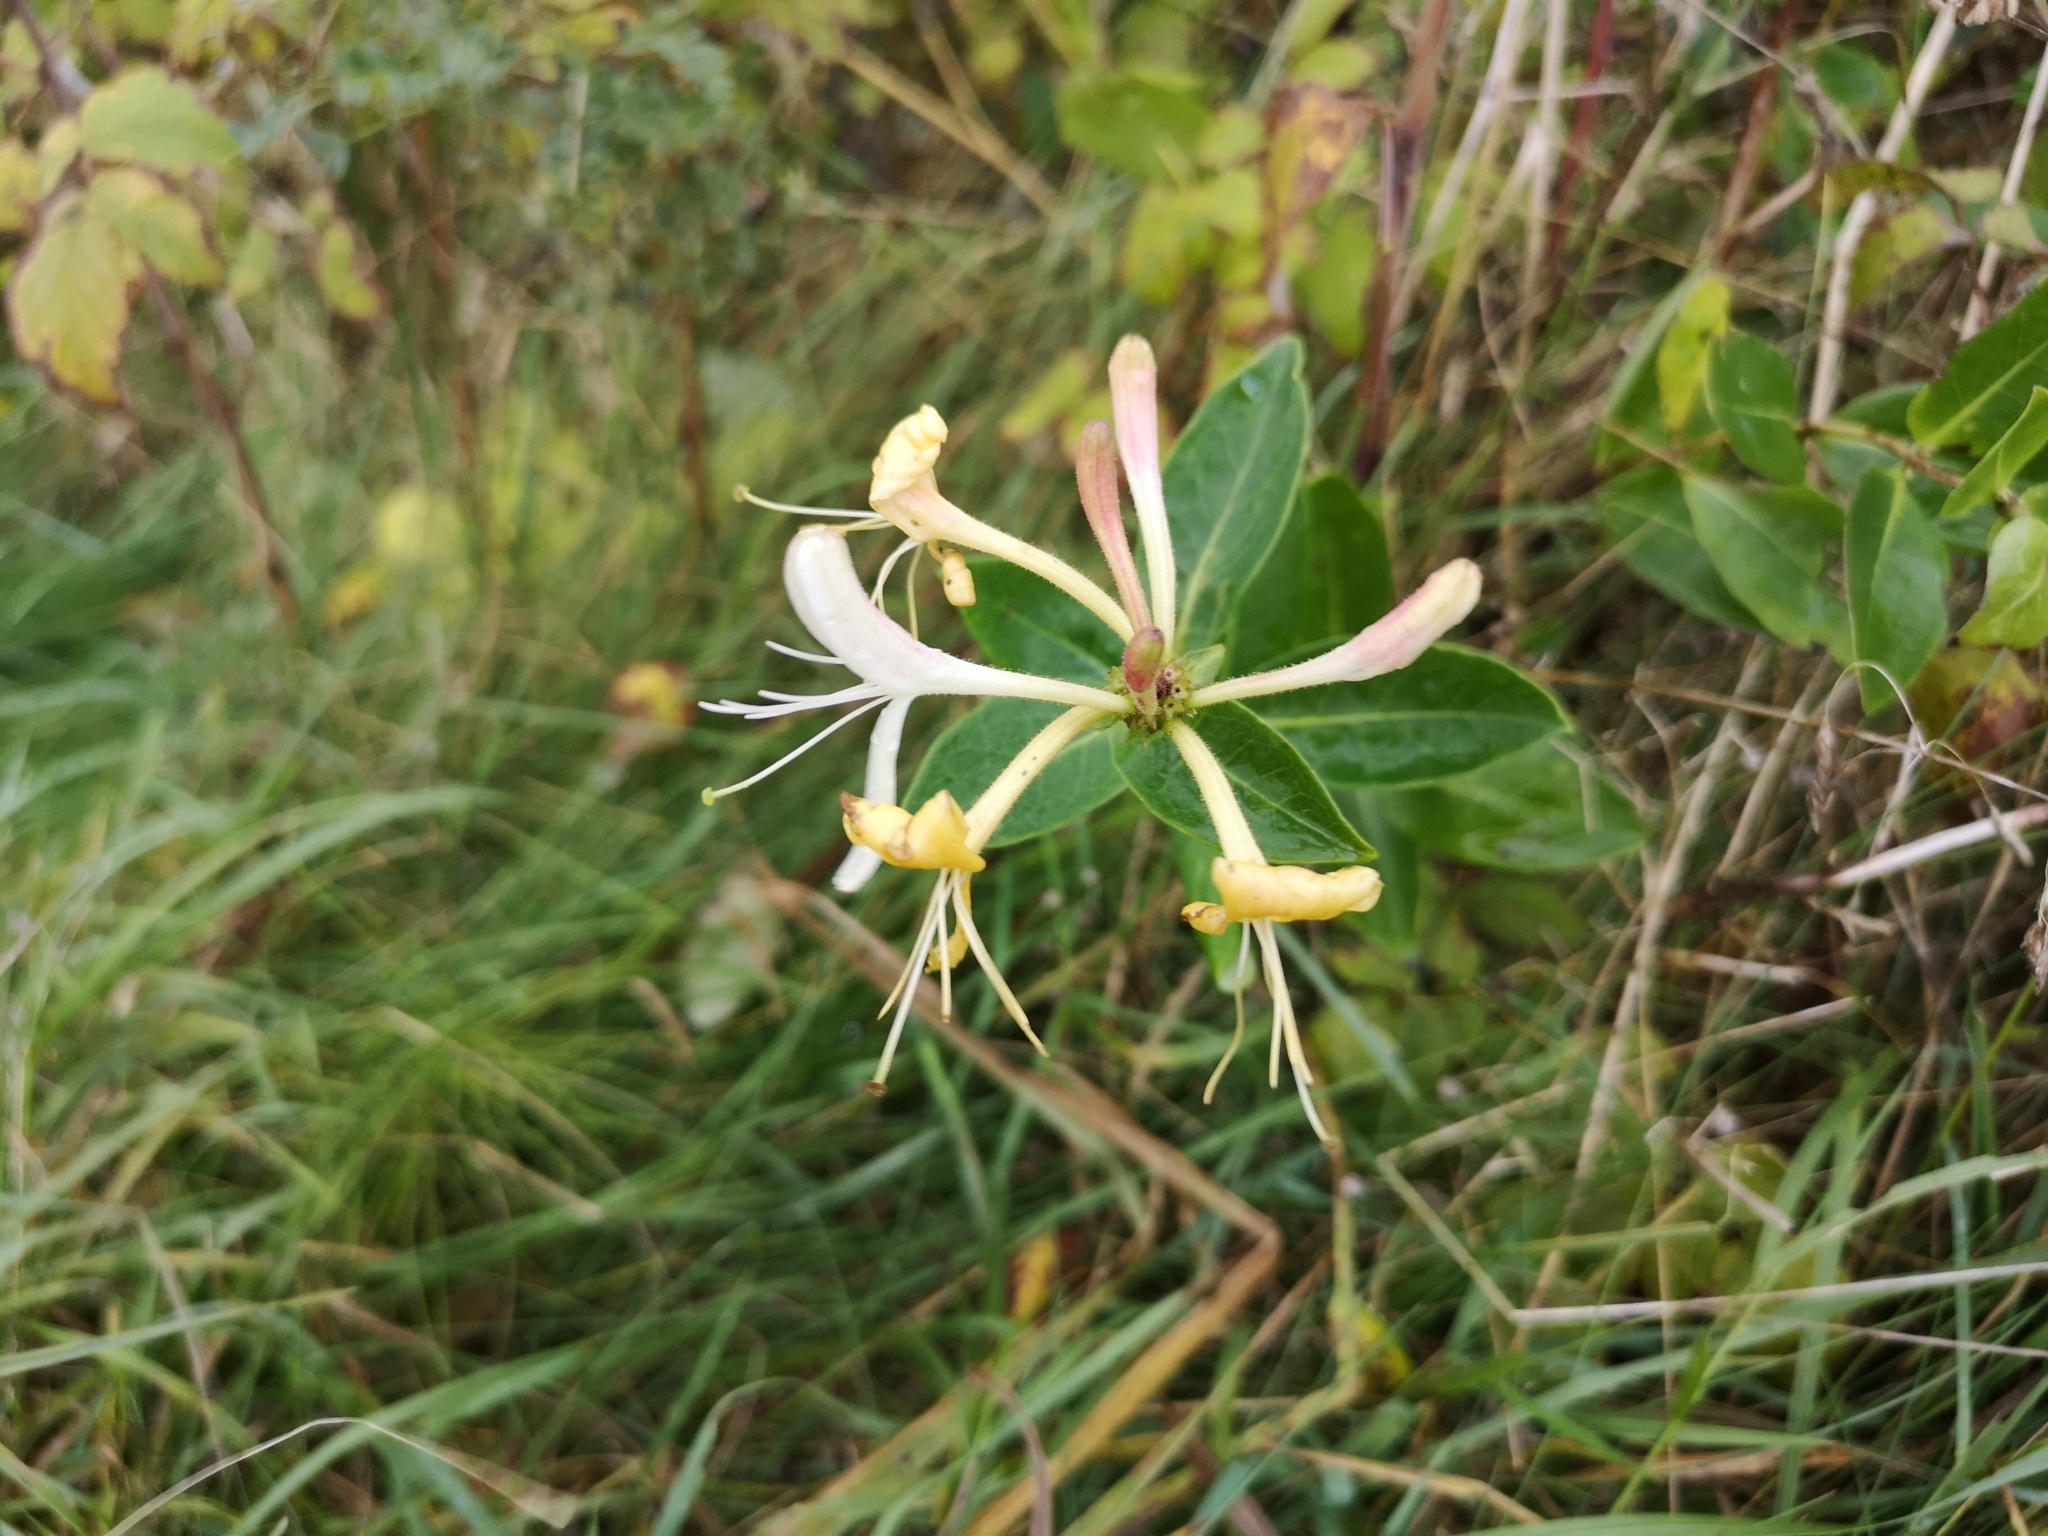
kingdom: Plantae
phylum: Tracheophyta
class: Magnoliopsida
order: Dipsacales
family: Caprifoliaceae
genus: Lonicera
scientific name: Lonicera periclymenum
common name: European honeysuckle
